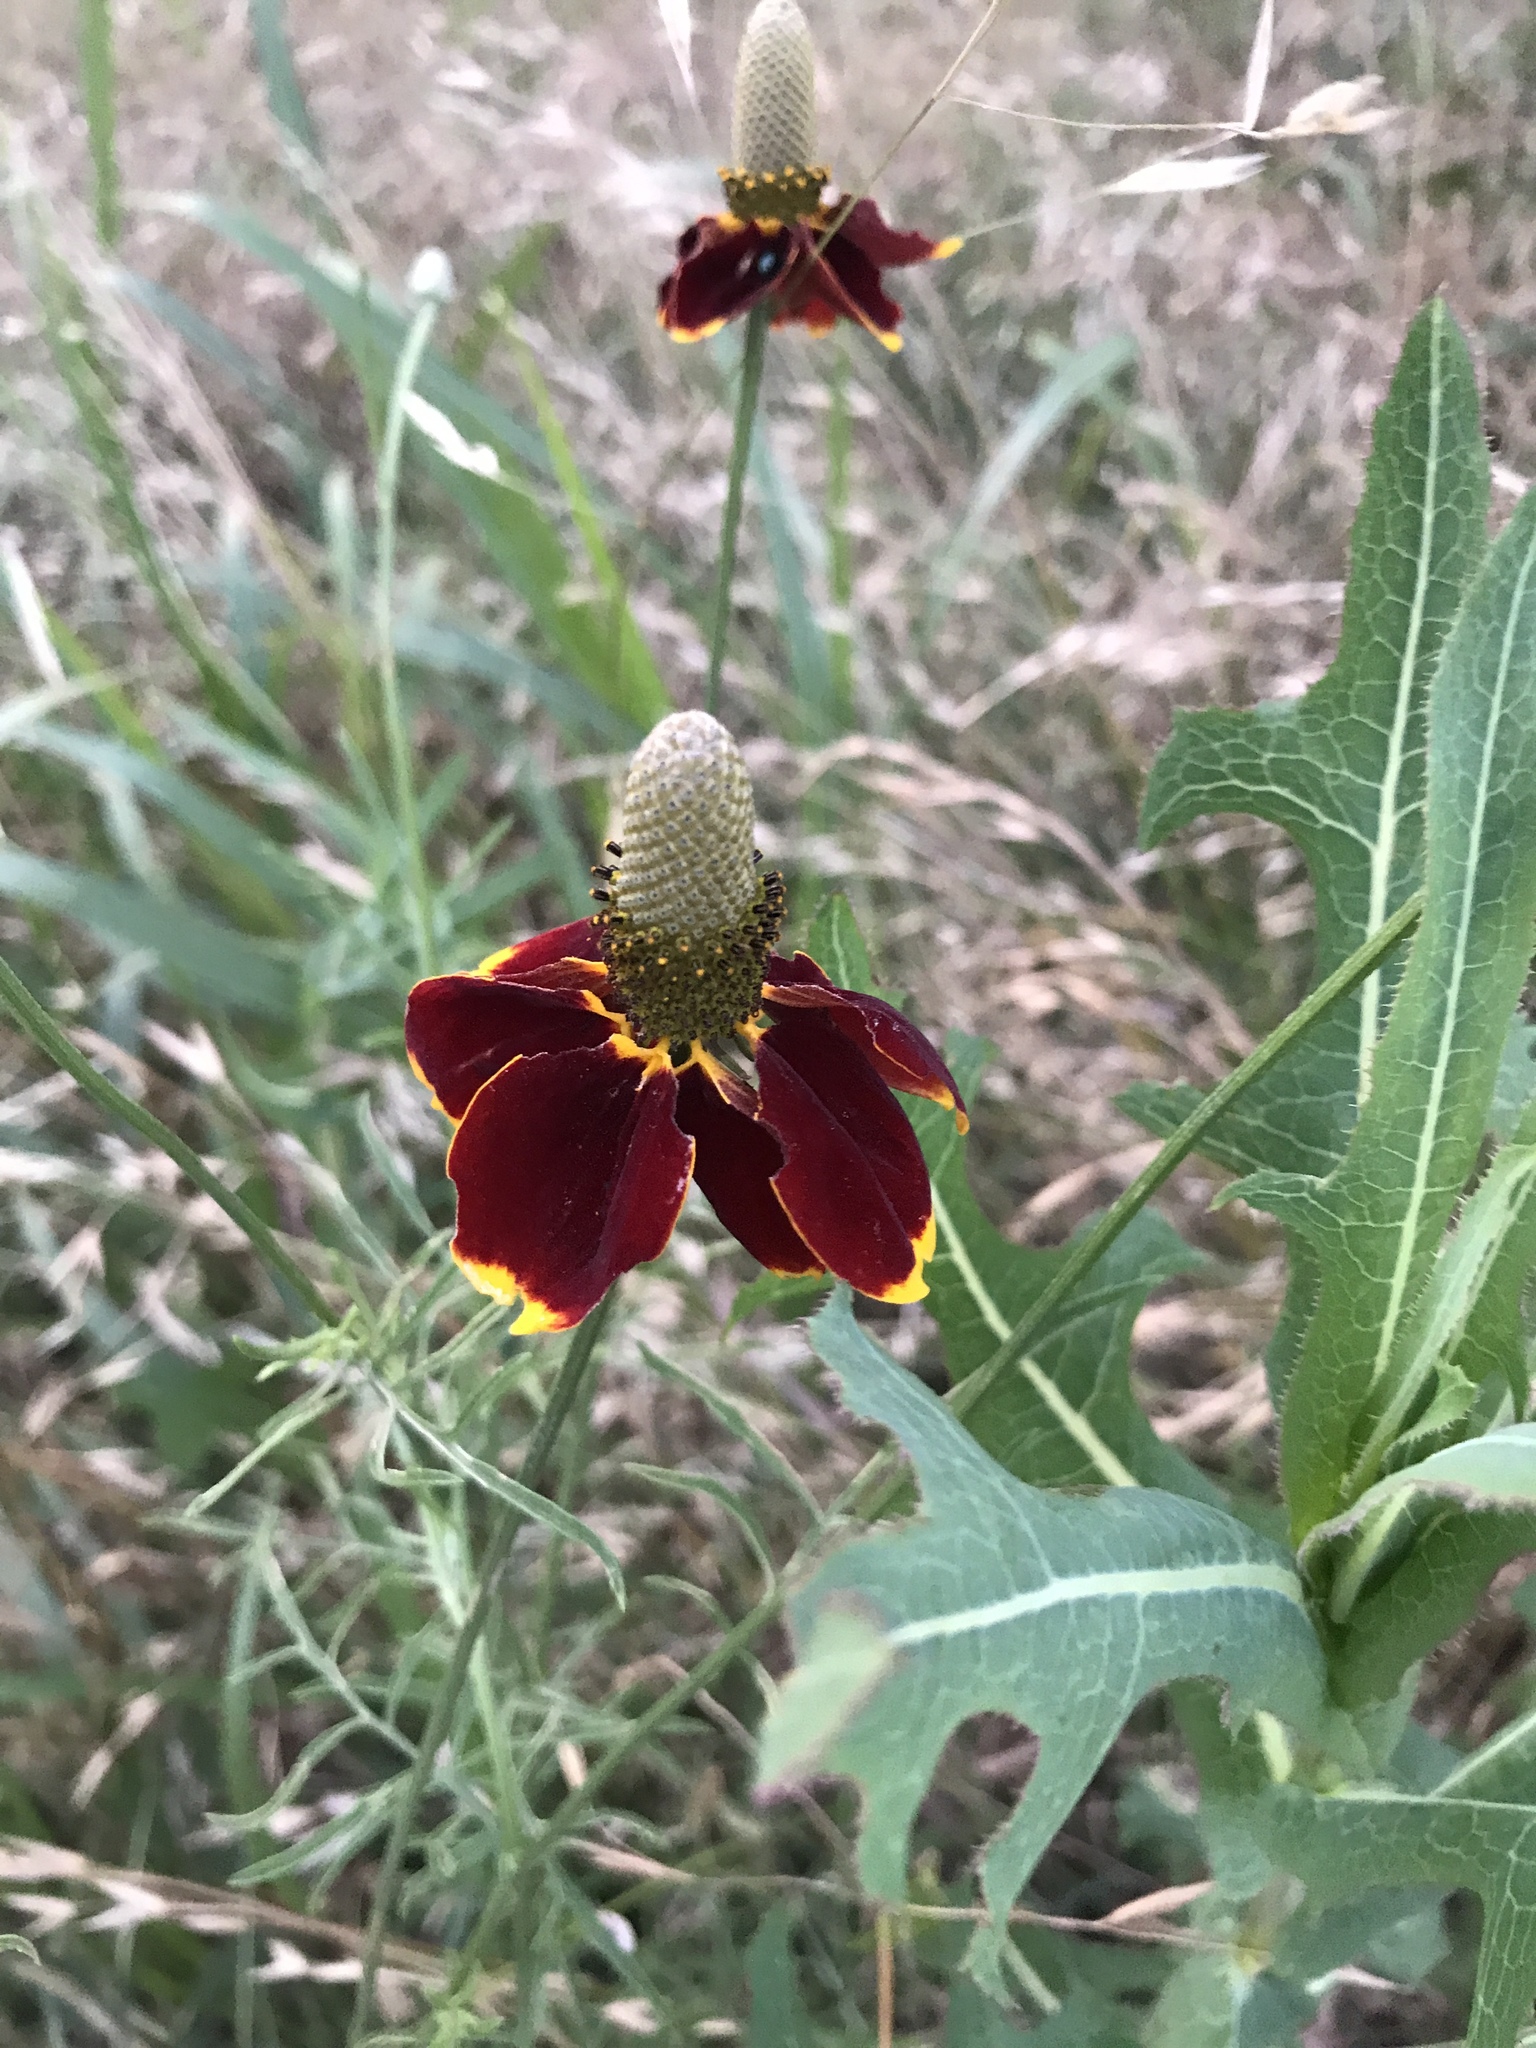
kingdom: Plantae
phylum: Tracheophyta
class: Magnoliopsida
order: Asterales
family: Asteraceae
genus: Ratibida
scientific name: Ratibida columnifera
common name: Prairie coneflower
